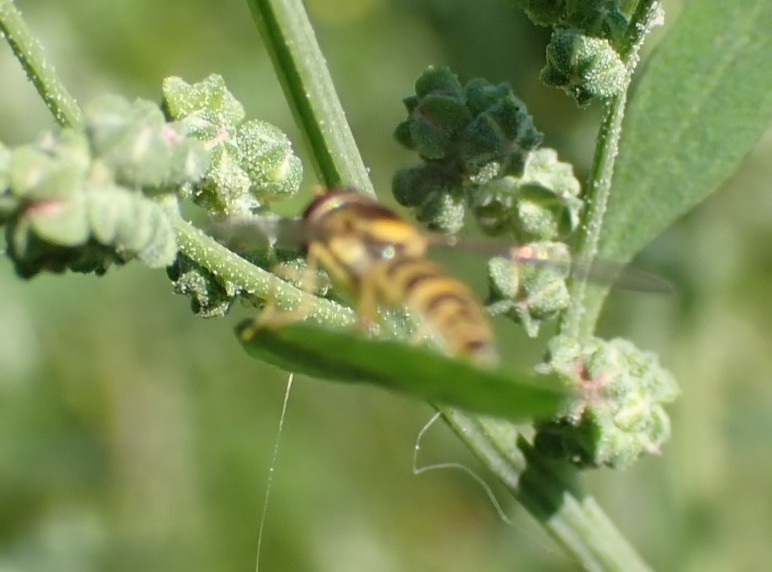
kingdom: Animalia
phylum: Arthropoda
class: Insecta
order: Diptera
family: Syrphidae
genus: Sphaerophoria
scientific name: Sphaerophoria
